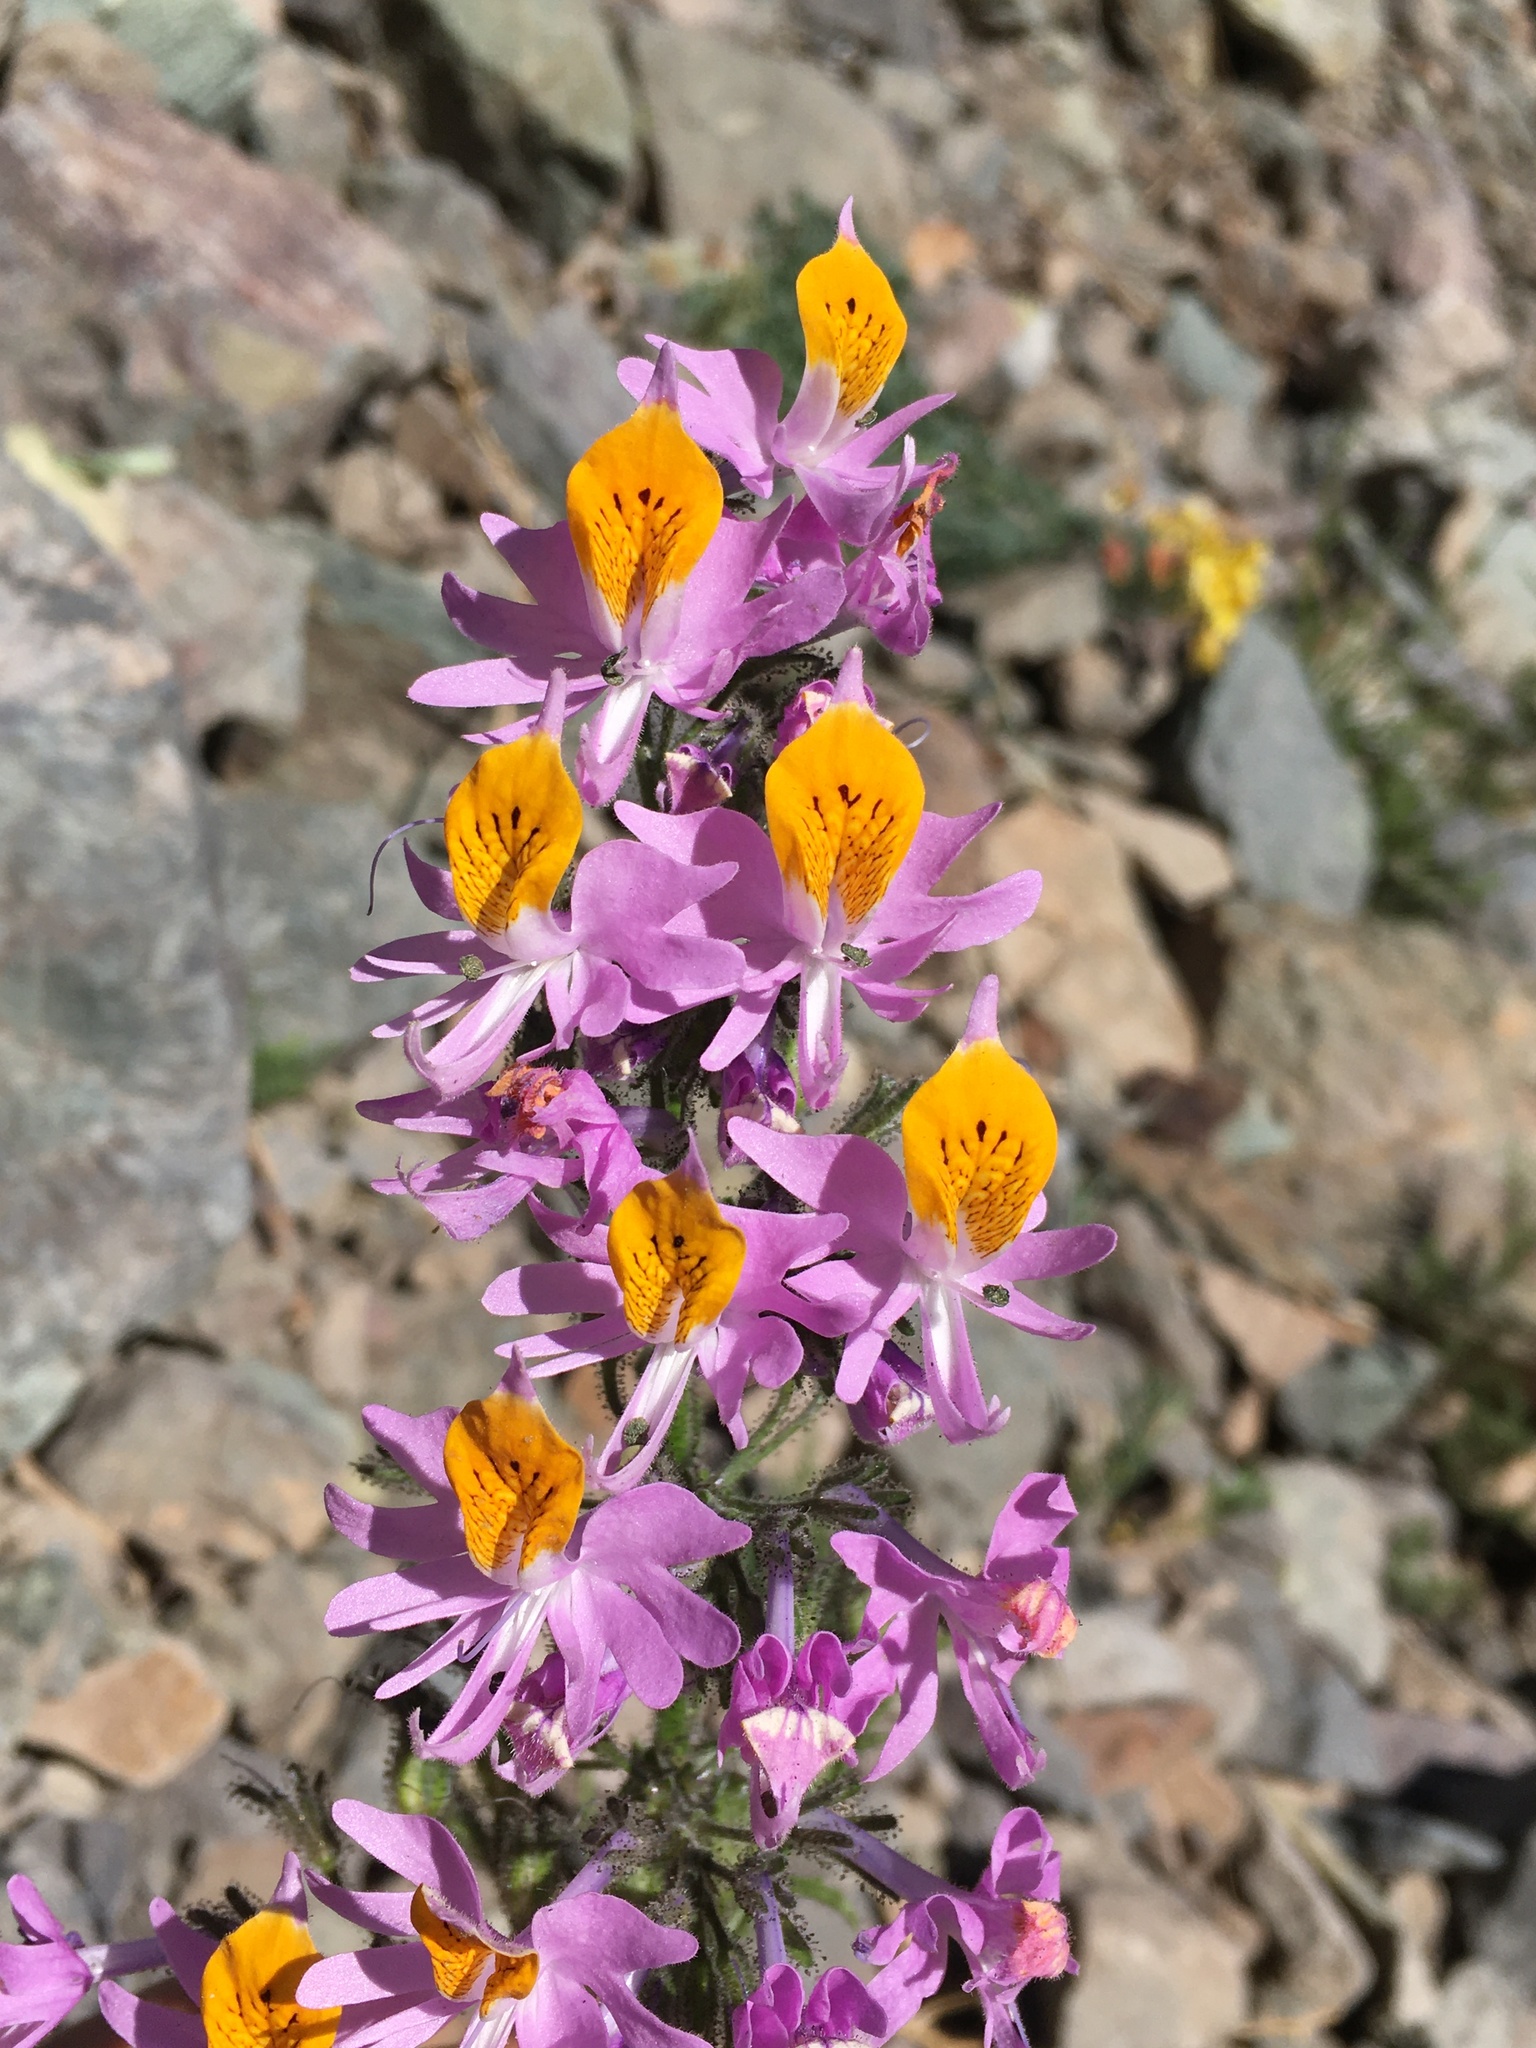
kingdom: Plantae
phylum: Tracheophyta
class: Magnoliopsida
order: Solanales
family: Solanaceae
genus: Schizanthus
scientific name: Schizanthus hookeri
